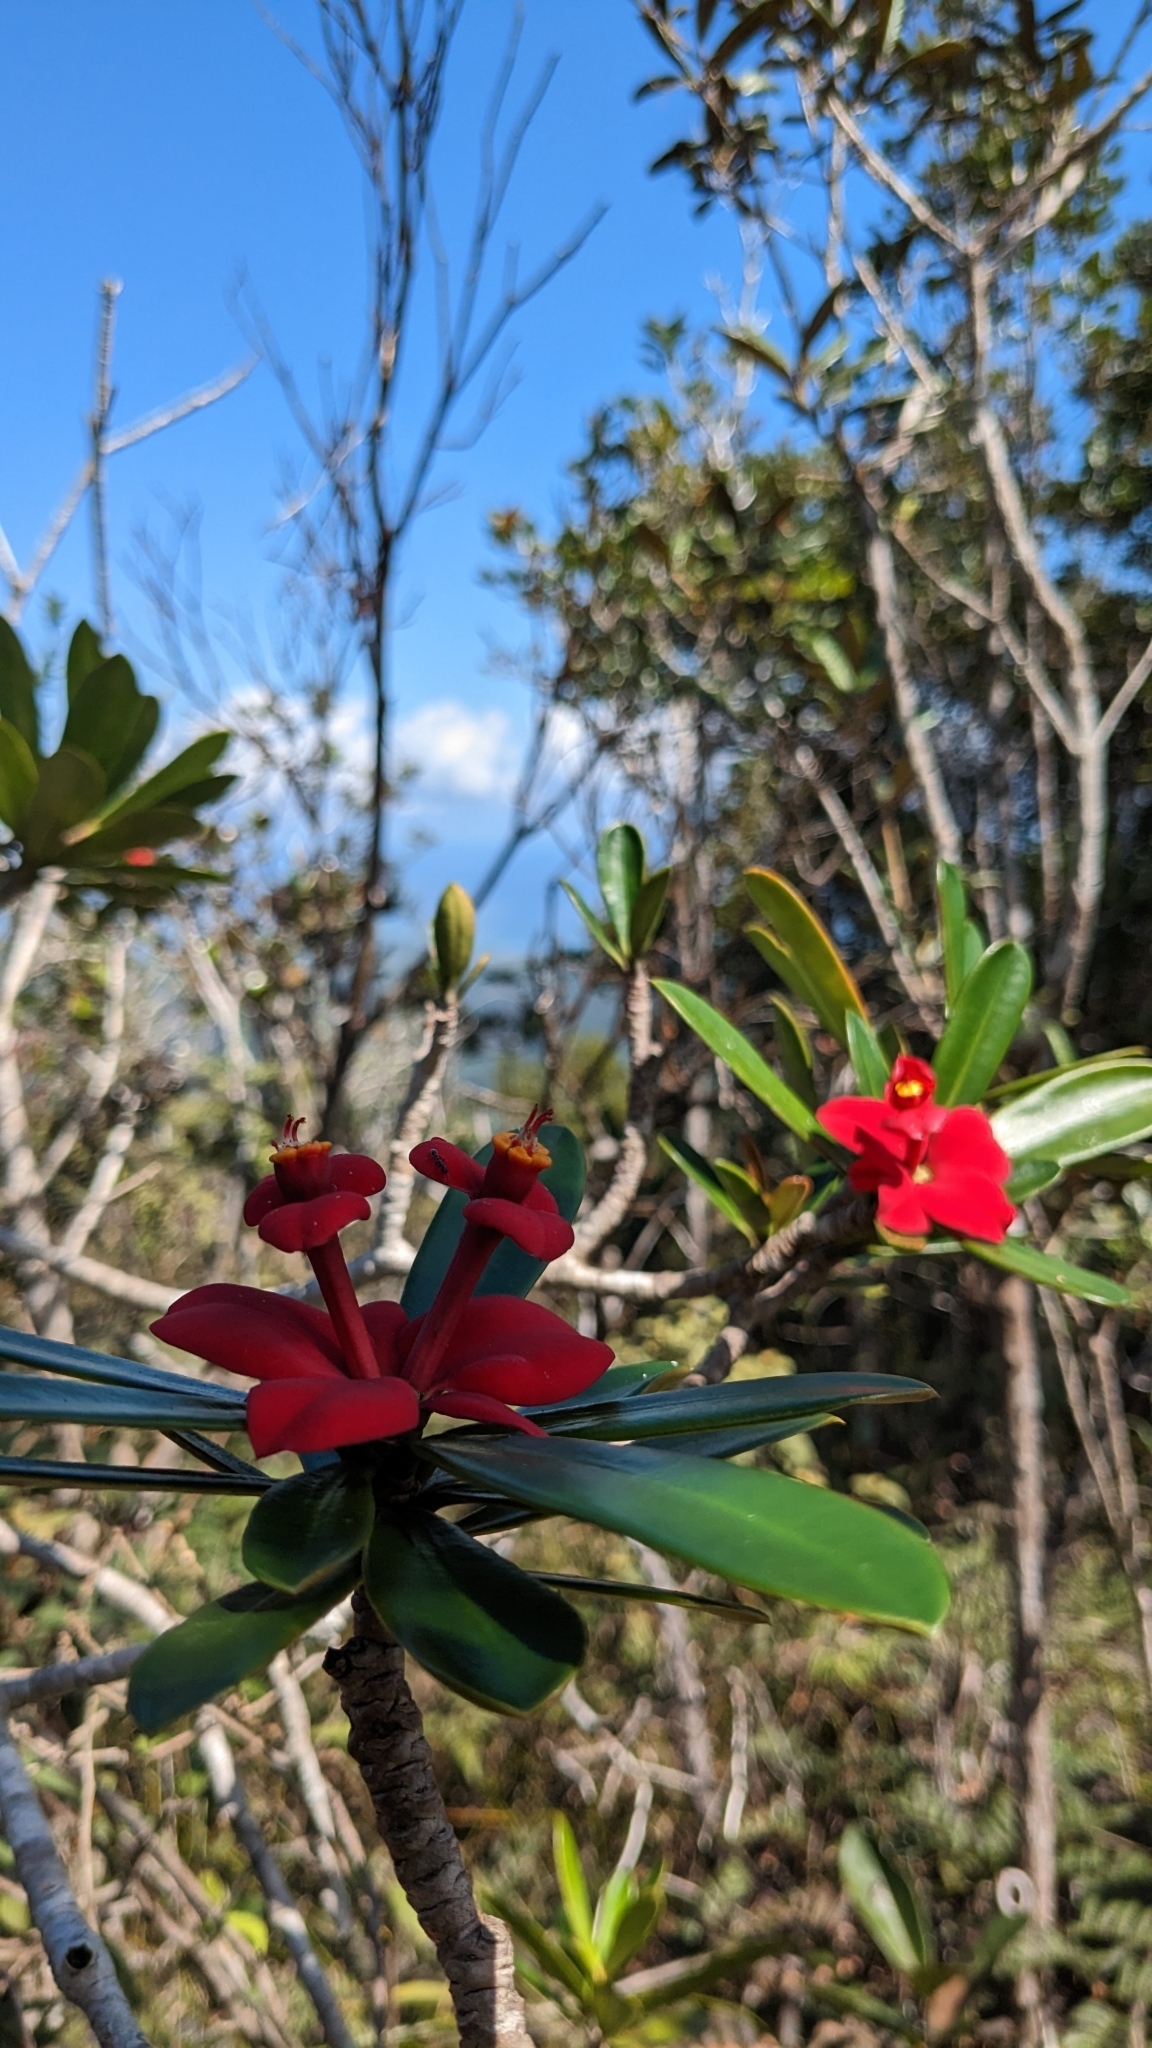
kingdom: Plantae
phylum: Tracheophyta
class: Magnoliopsida
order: Malpighiales
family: Euphorbiaceae
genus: Euphorbia
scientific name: Euphorbia helenae
